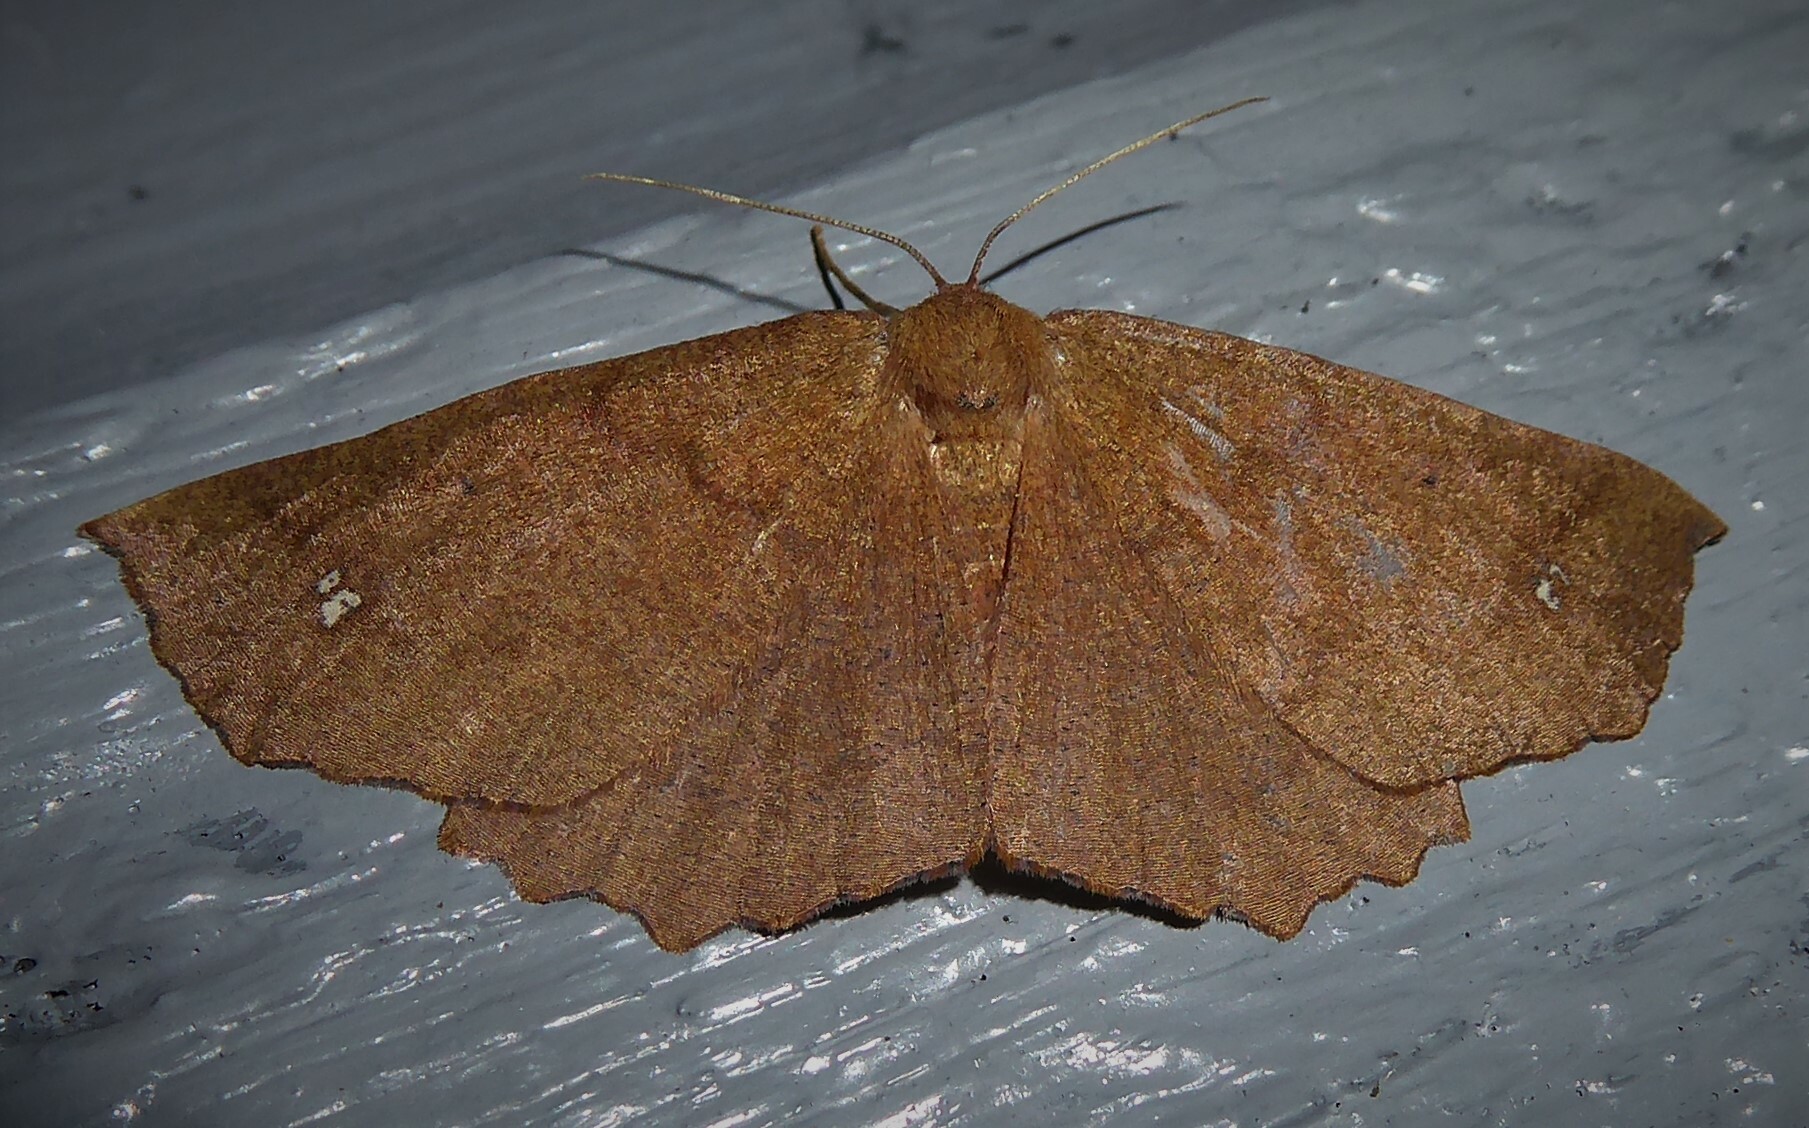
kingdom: Animalia
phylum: Arthropoda
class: Insecta
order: Lepidoptera
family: Geometridae
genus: Xyridacma
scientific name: Xyridacma ustaria
